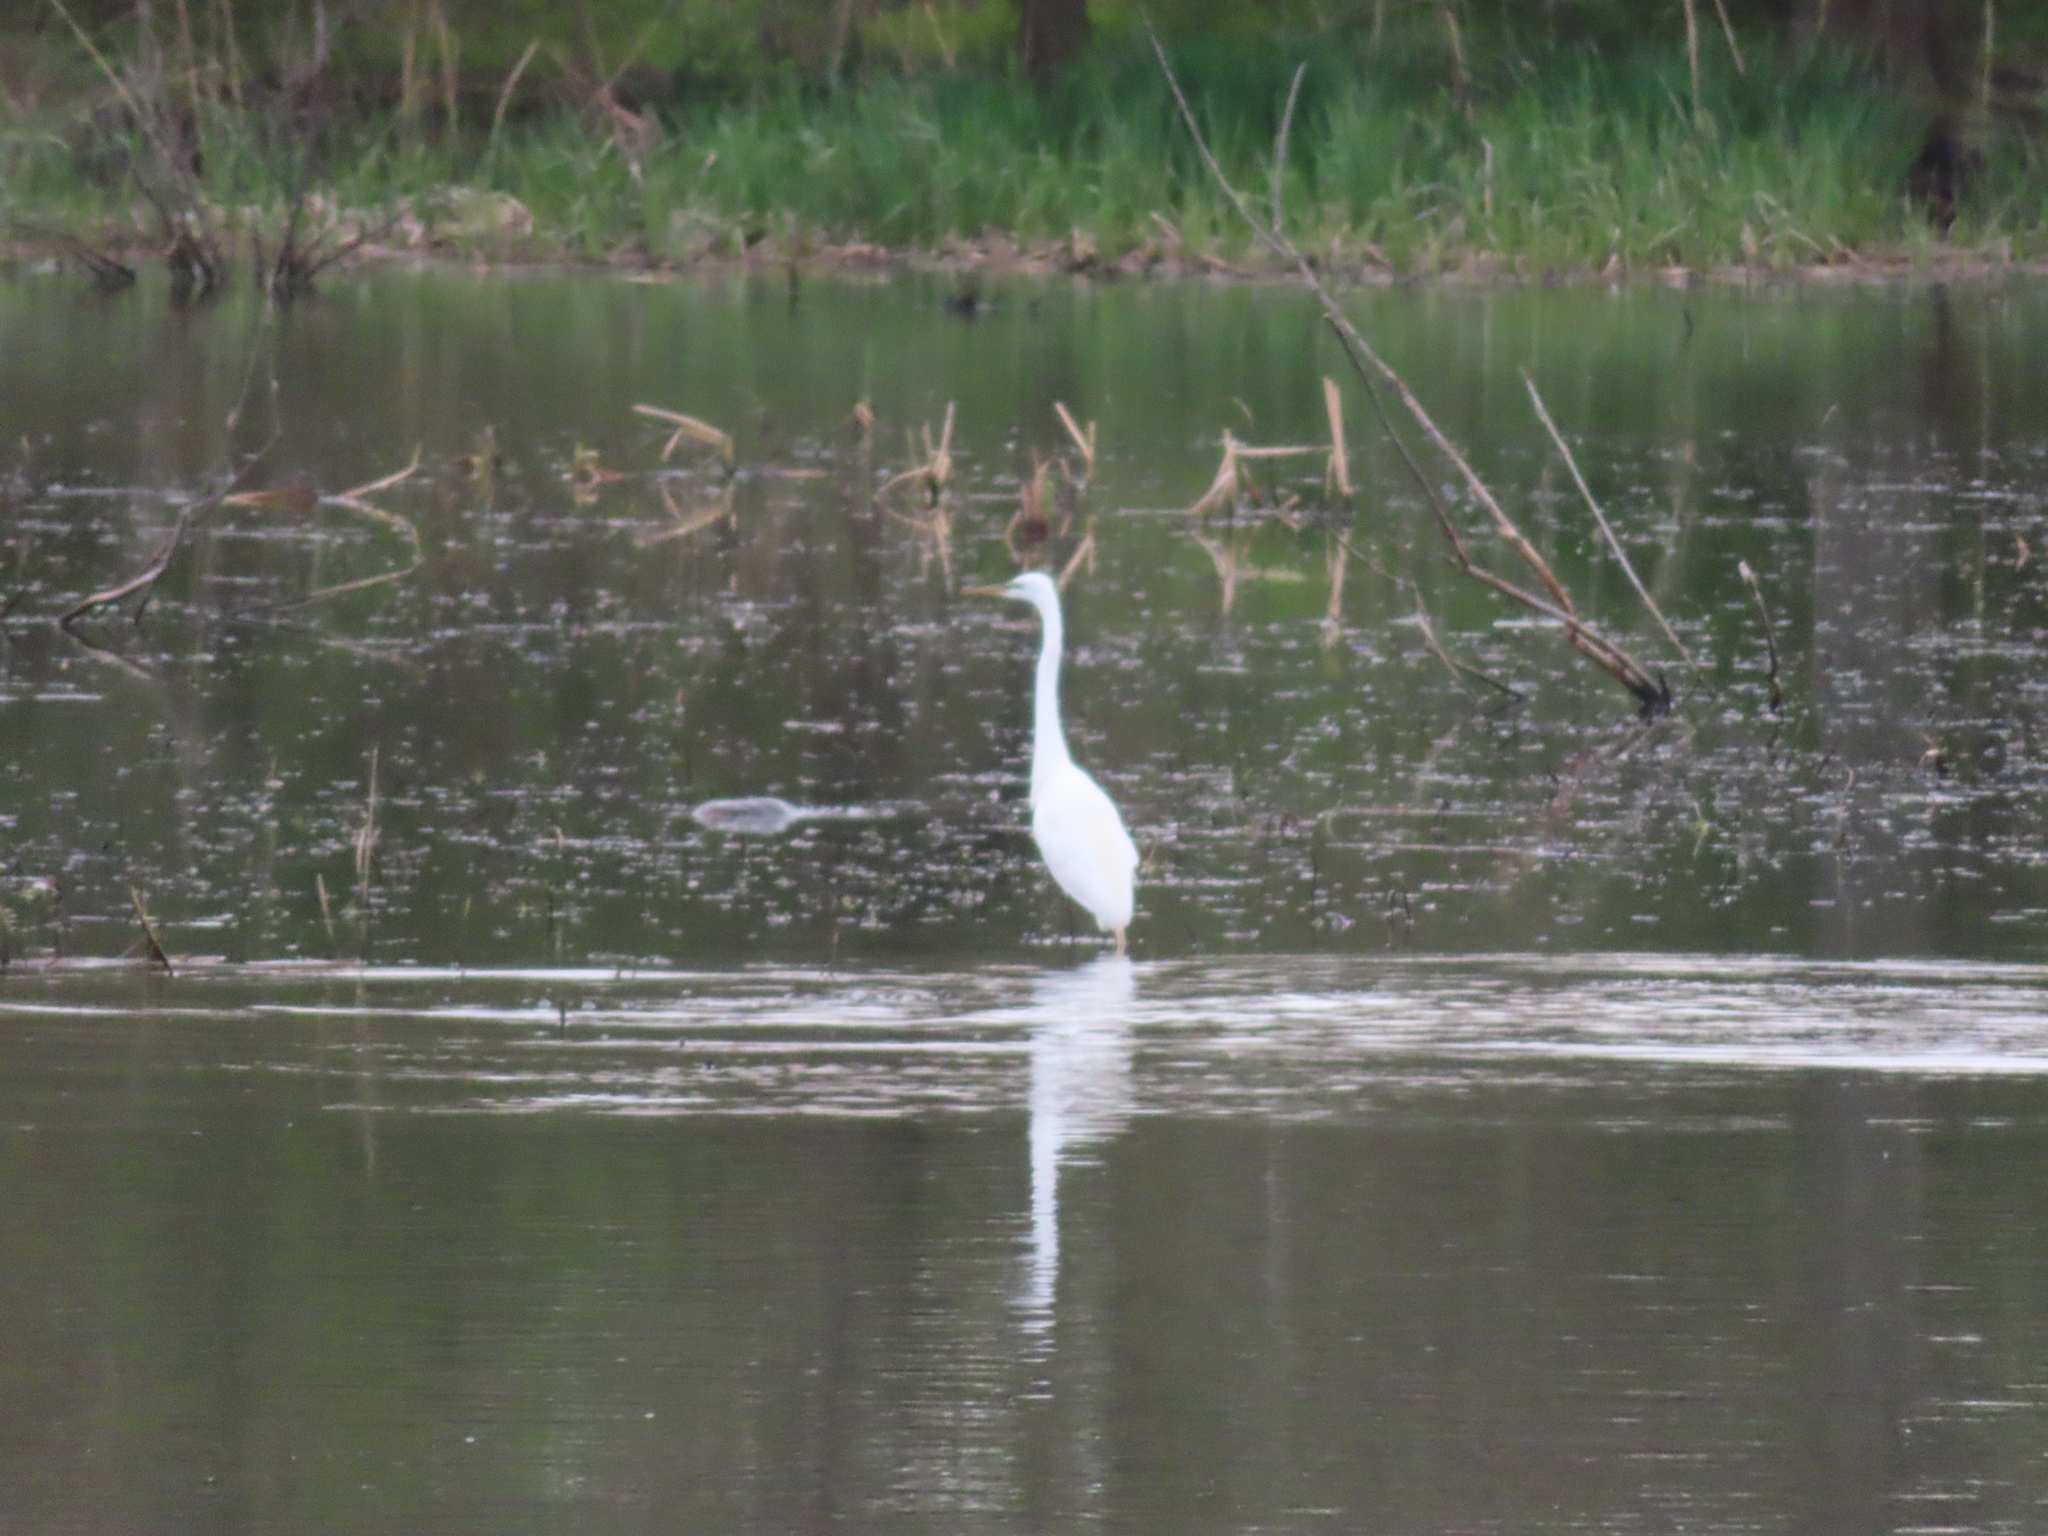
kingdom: Animalia
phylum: Chordata
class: Aves
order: Pelecaniformes
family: Ardeidae
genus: Ardea
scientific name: Ardea alba
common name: Great egret
